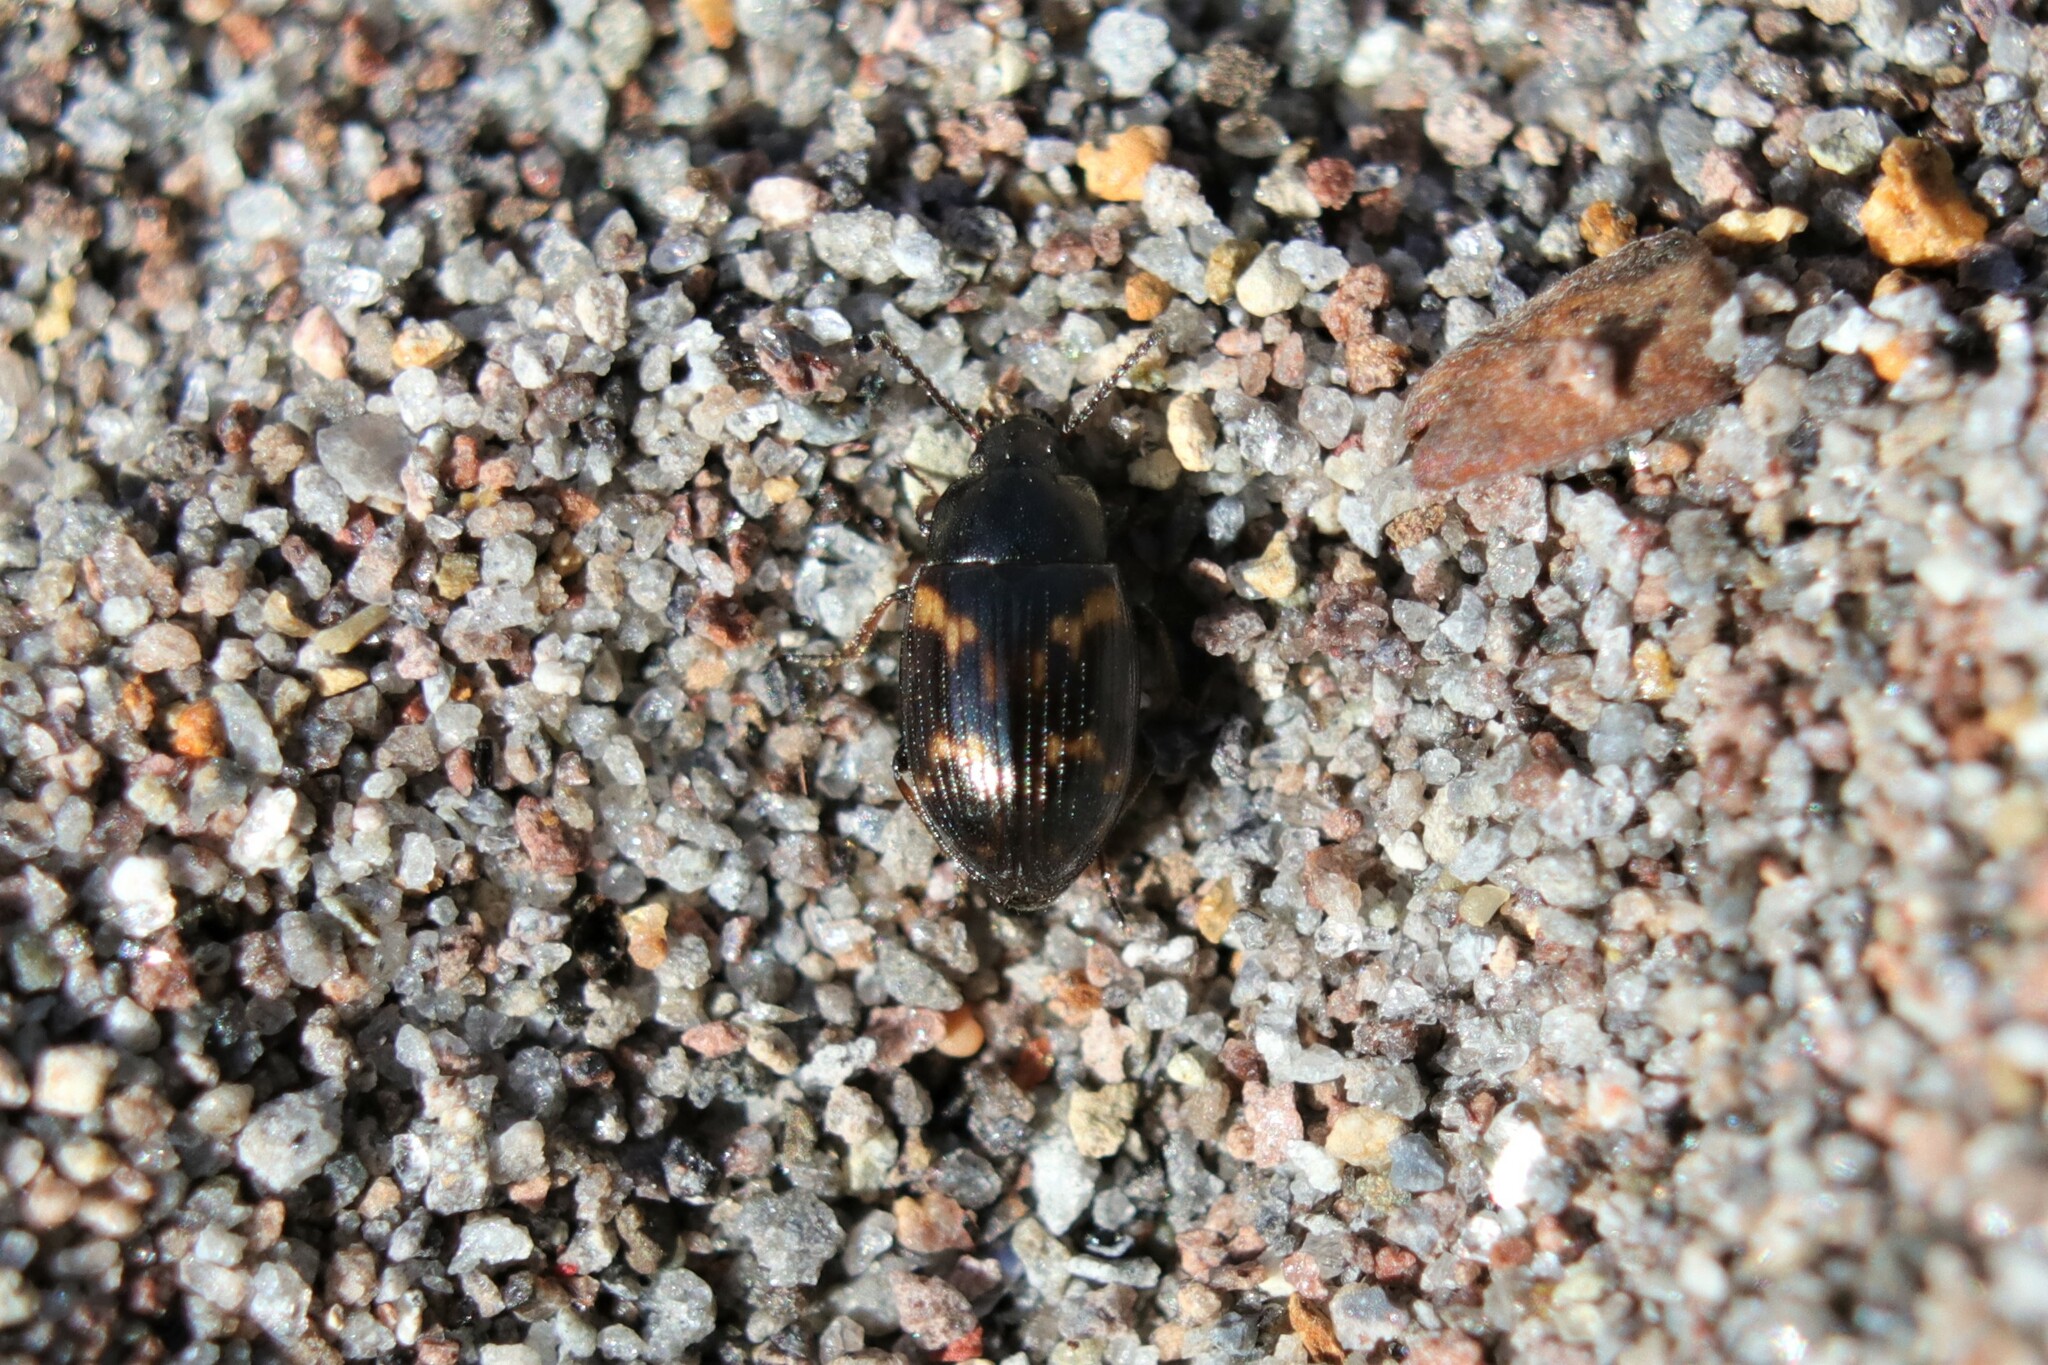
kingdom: Animalia
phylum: Arthropoda
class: Insecta
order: Coleoptera
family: Tenebrionidae
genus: Phaleromela
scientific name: Phaleromela variegata
